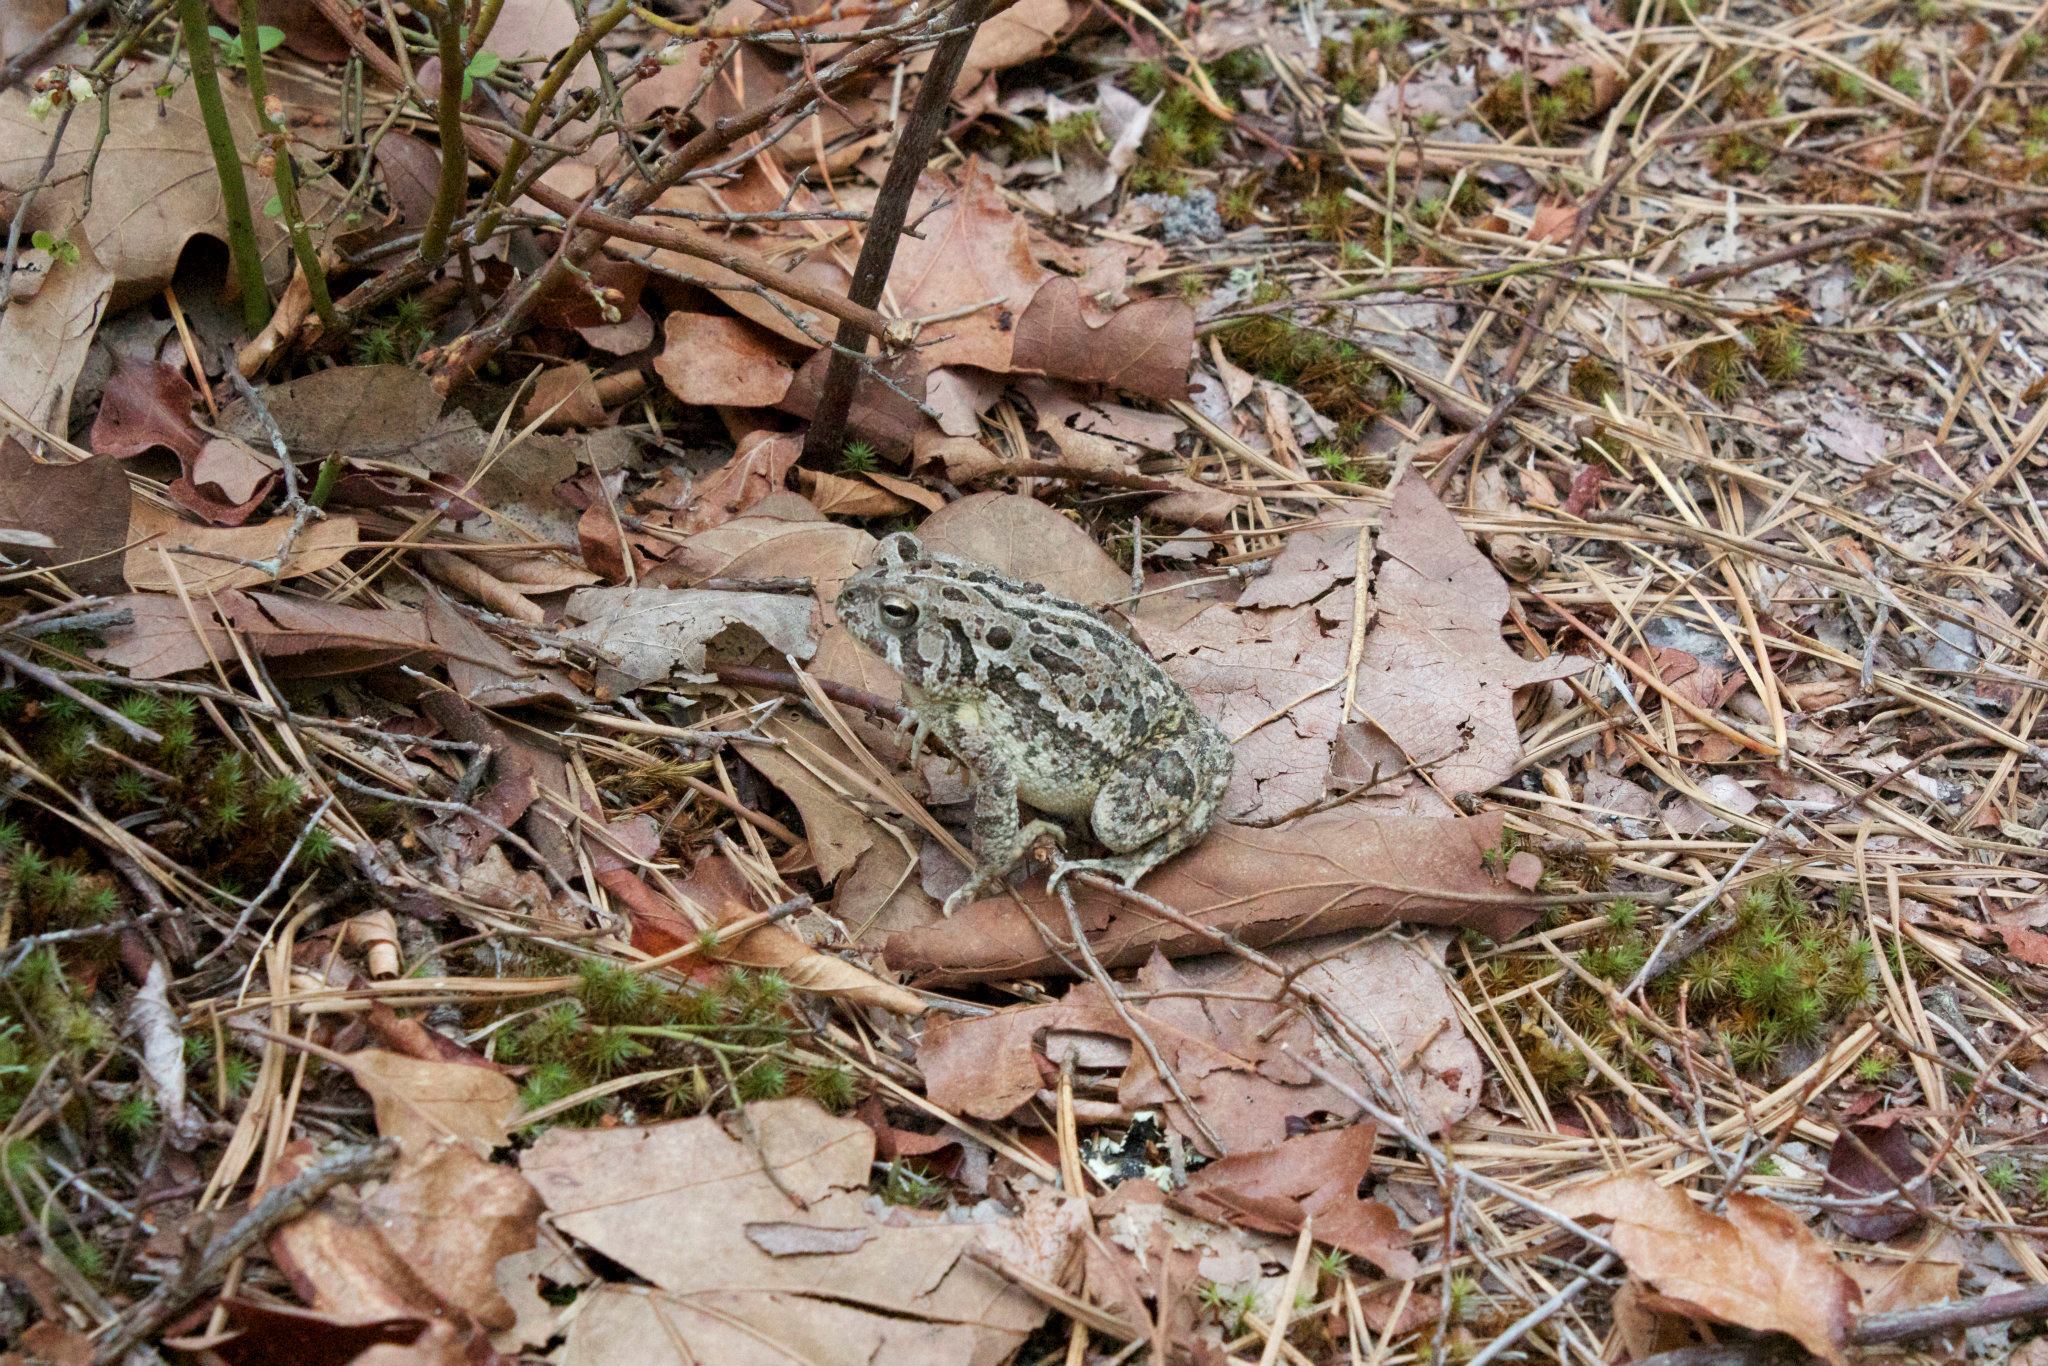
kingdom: Animalia
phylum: Chordata
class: Amphibia
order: Anura
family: Bufonidae
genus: Anaxyrus
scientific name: Anaxyrus fowleri
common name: Fowler's toad
